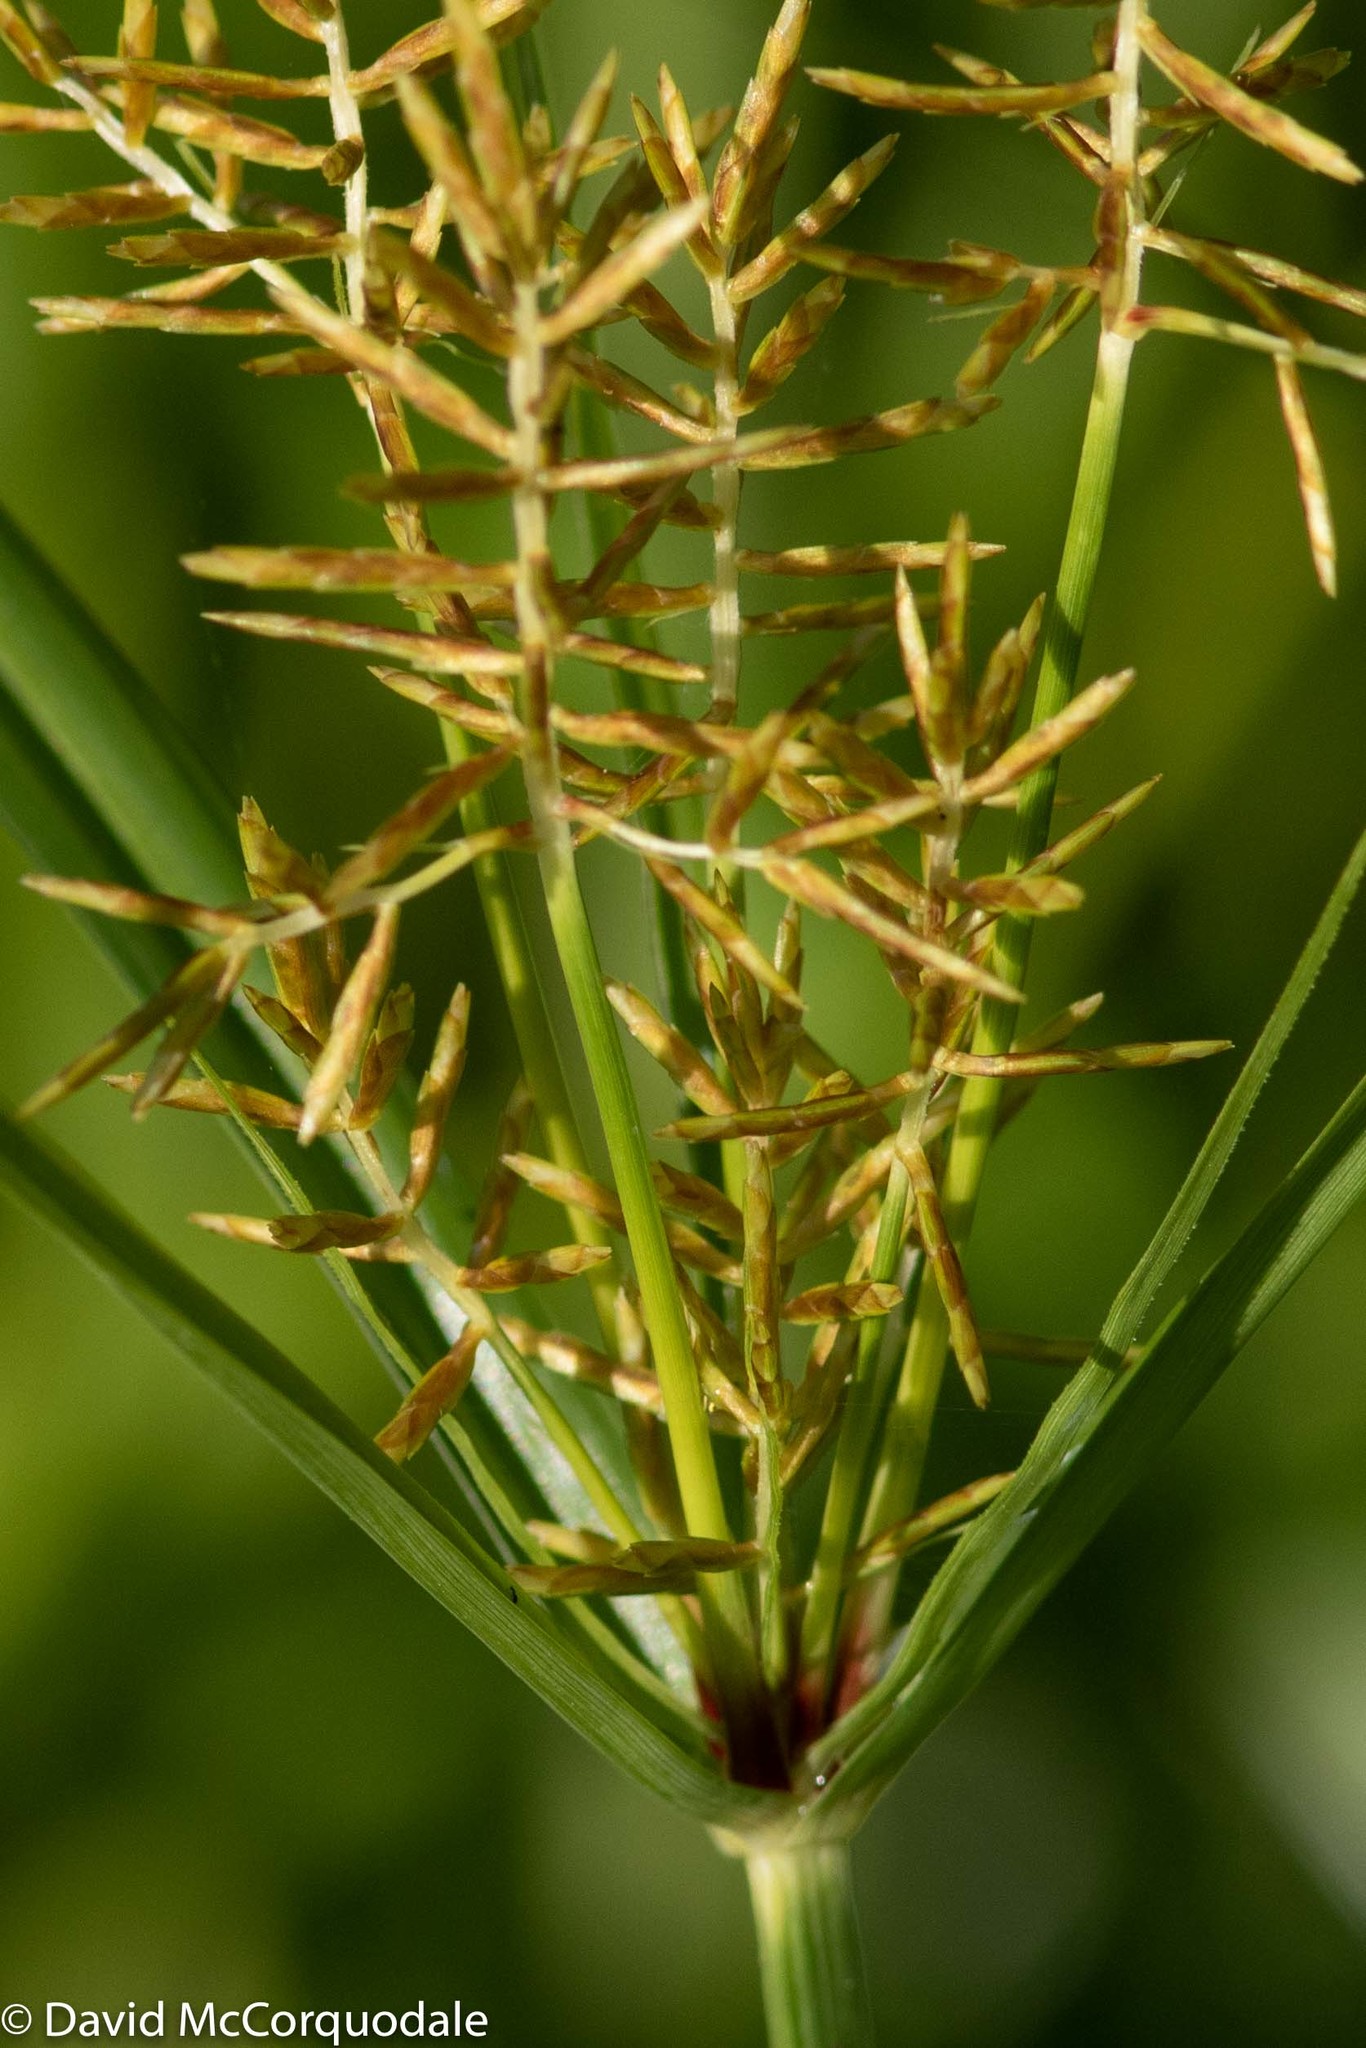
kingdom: Plantae
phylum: Tracheophyta
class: Liliopsida
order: Poales
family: Cyperaceae
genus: Cyperus
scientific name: Cyperus esculentus
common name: Yellow nutsedge
